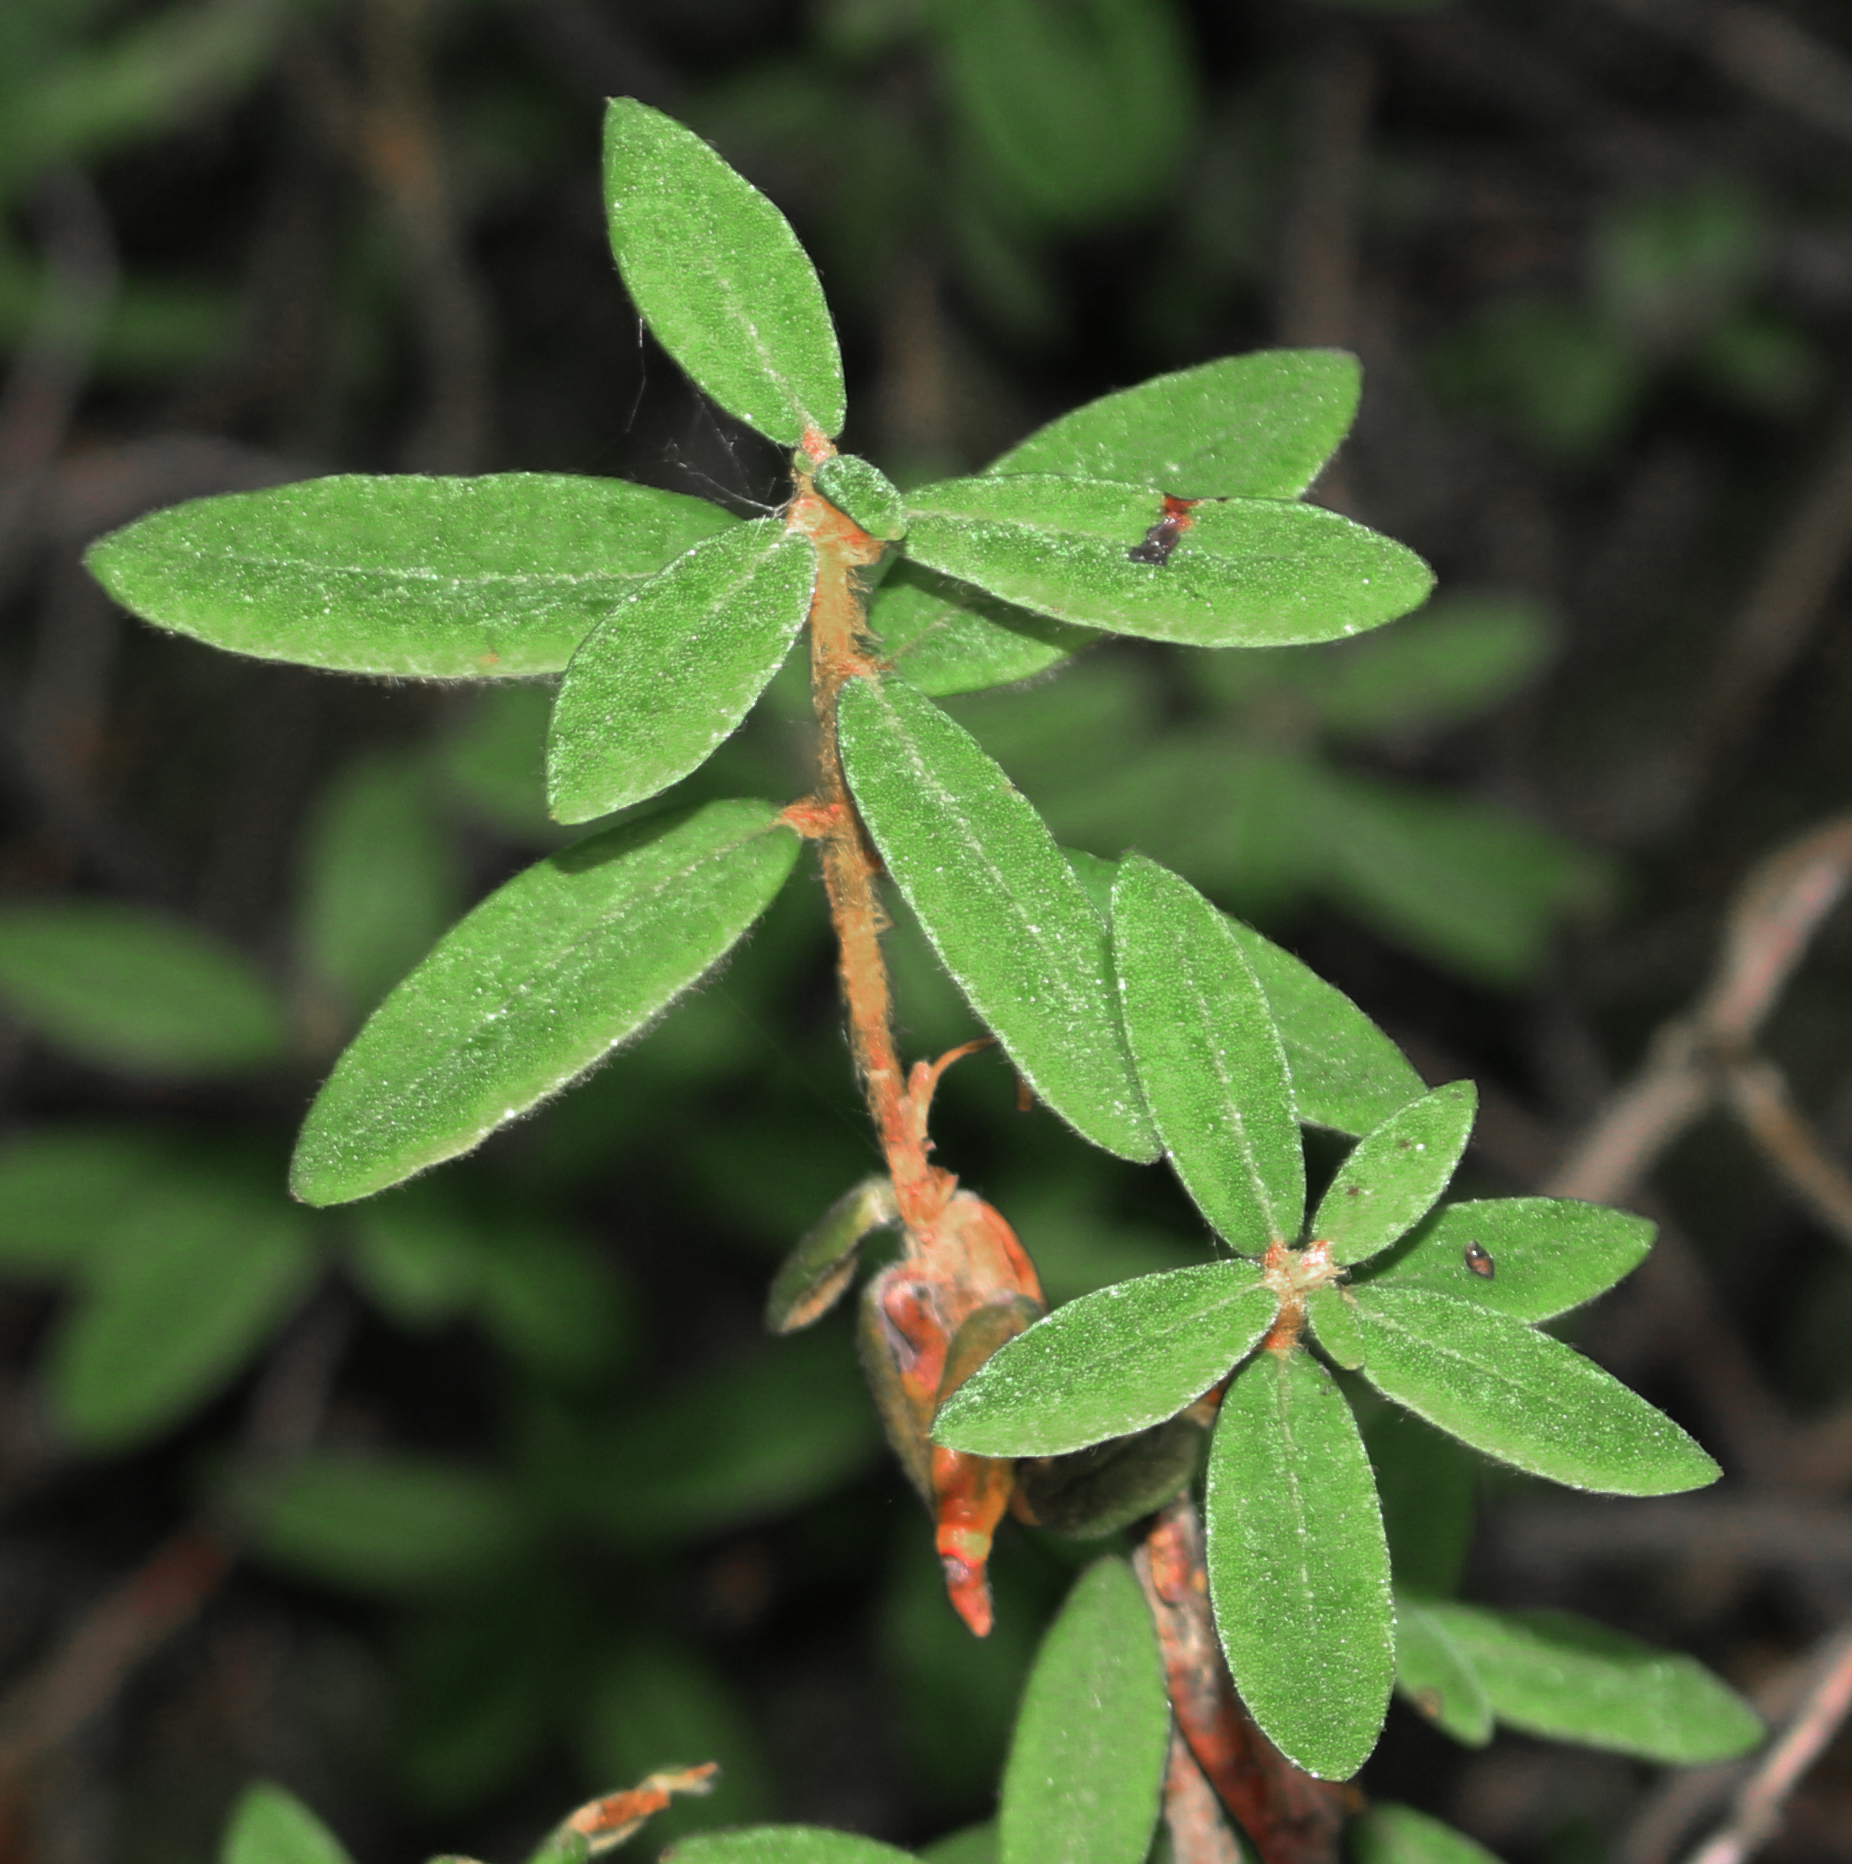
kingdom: Plantae
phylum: Tracheophyta
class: Magnoliopsida
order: Ericales
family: Ericaceae
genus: Rhododendron
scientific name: Rhododendron groenlandicum
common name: Bog labrador tea
